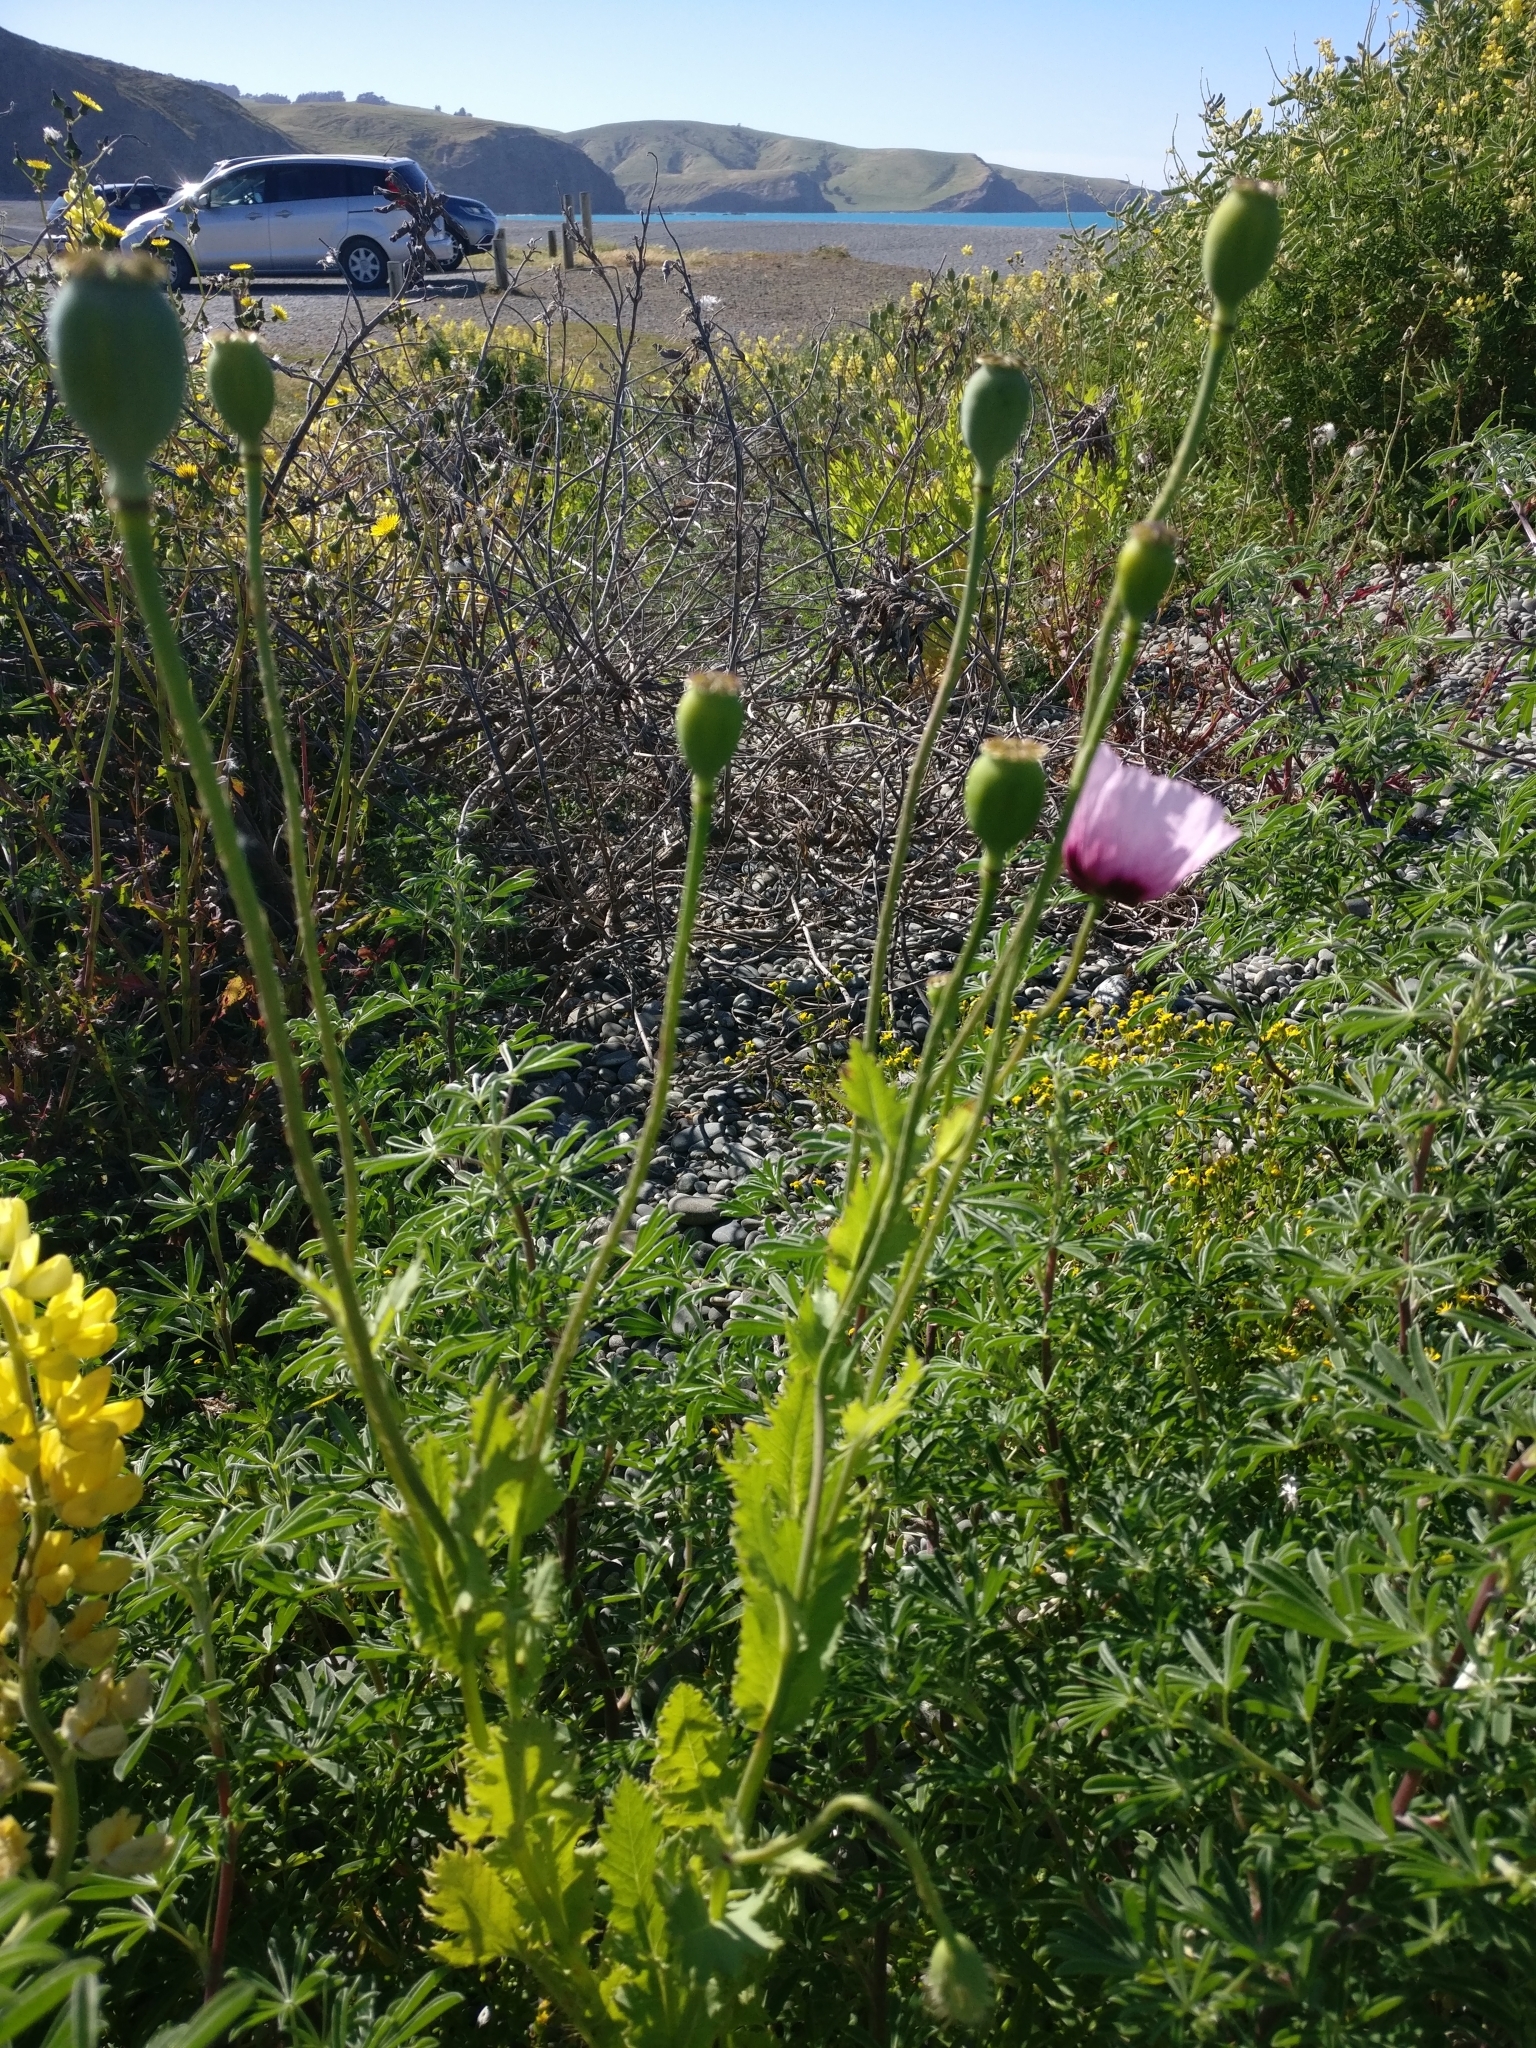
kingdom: Plantae
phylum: Tracheophyta
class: Magnoliopsida
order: Ranunculales
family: Papaveraceae
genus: Papaver
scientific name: Papaver somniferum
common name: Opium poppy
